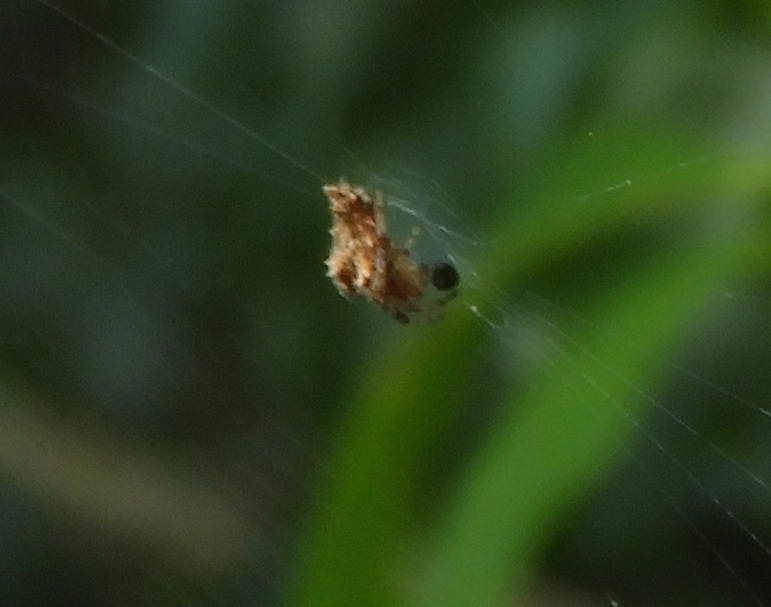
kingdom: Animalia
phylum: Arthropoda
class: Arachnida
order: Araneae
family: Araneidae
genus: Kaira
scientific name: Kaira
